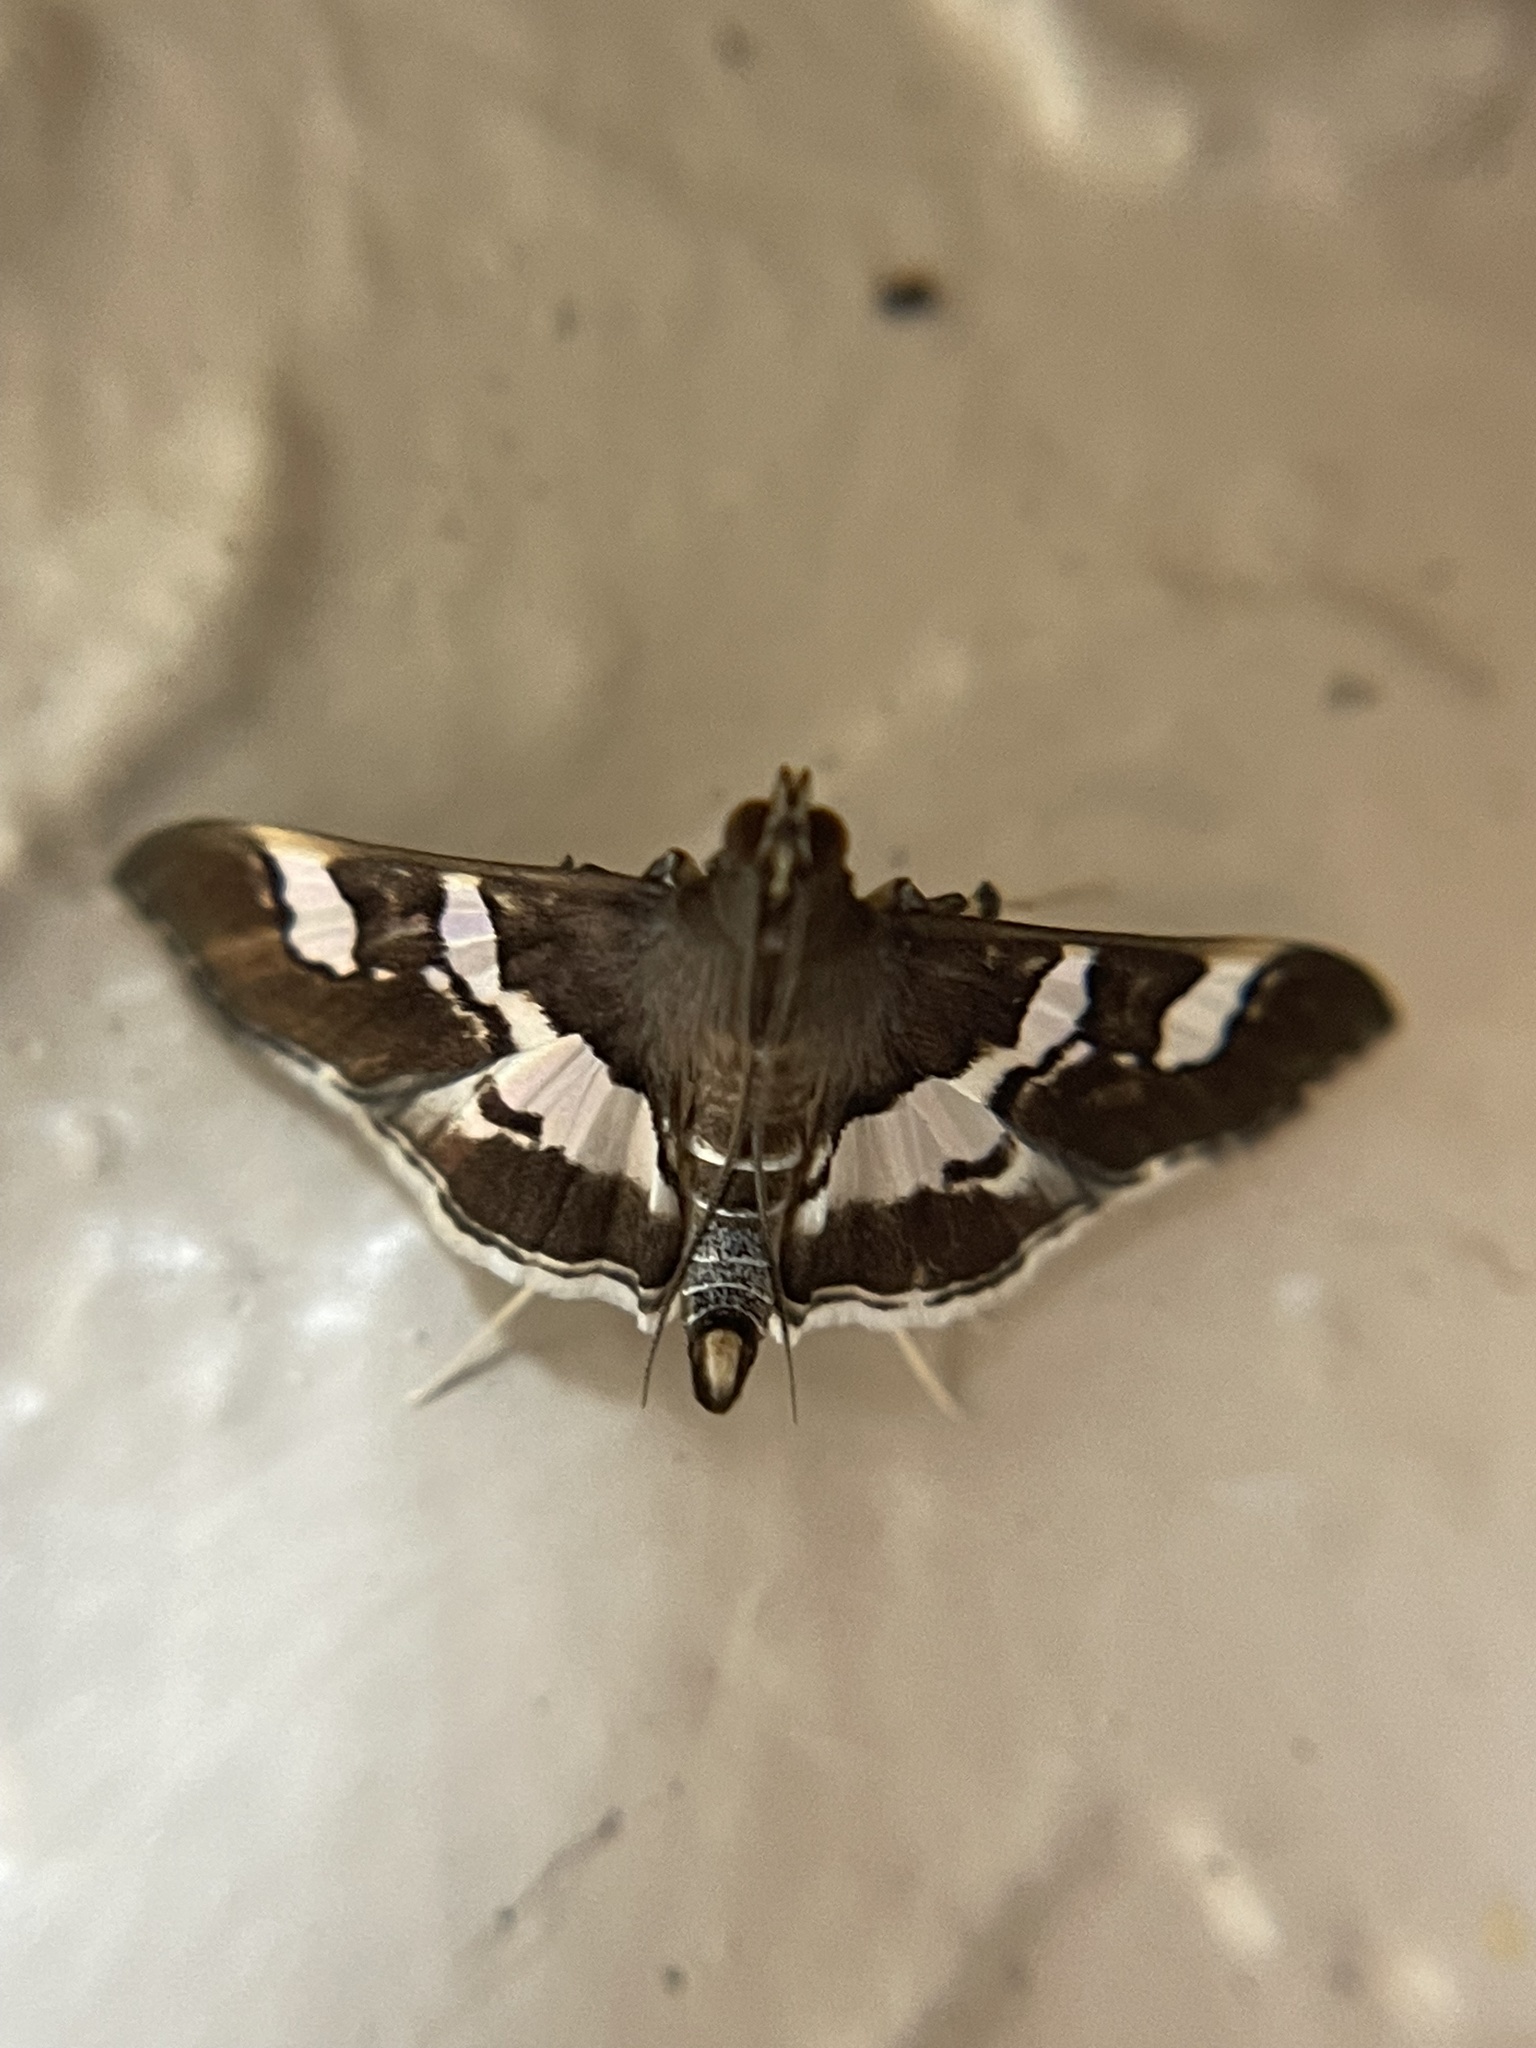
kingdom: Animalia
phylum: Arthropoda
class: Insecta
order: Lepidoptera
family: Crambidae
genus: Desmia
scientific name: Desmia ufeus
